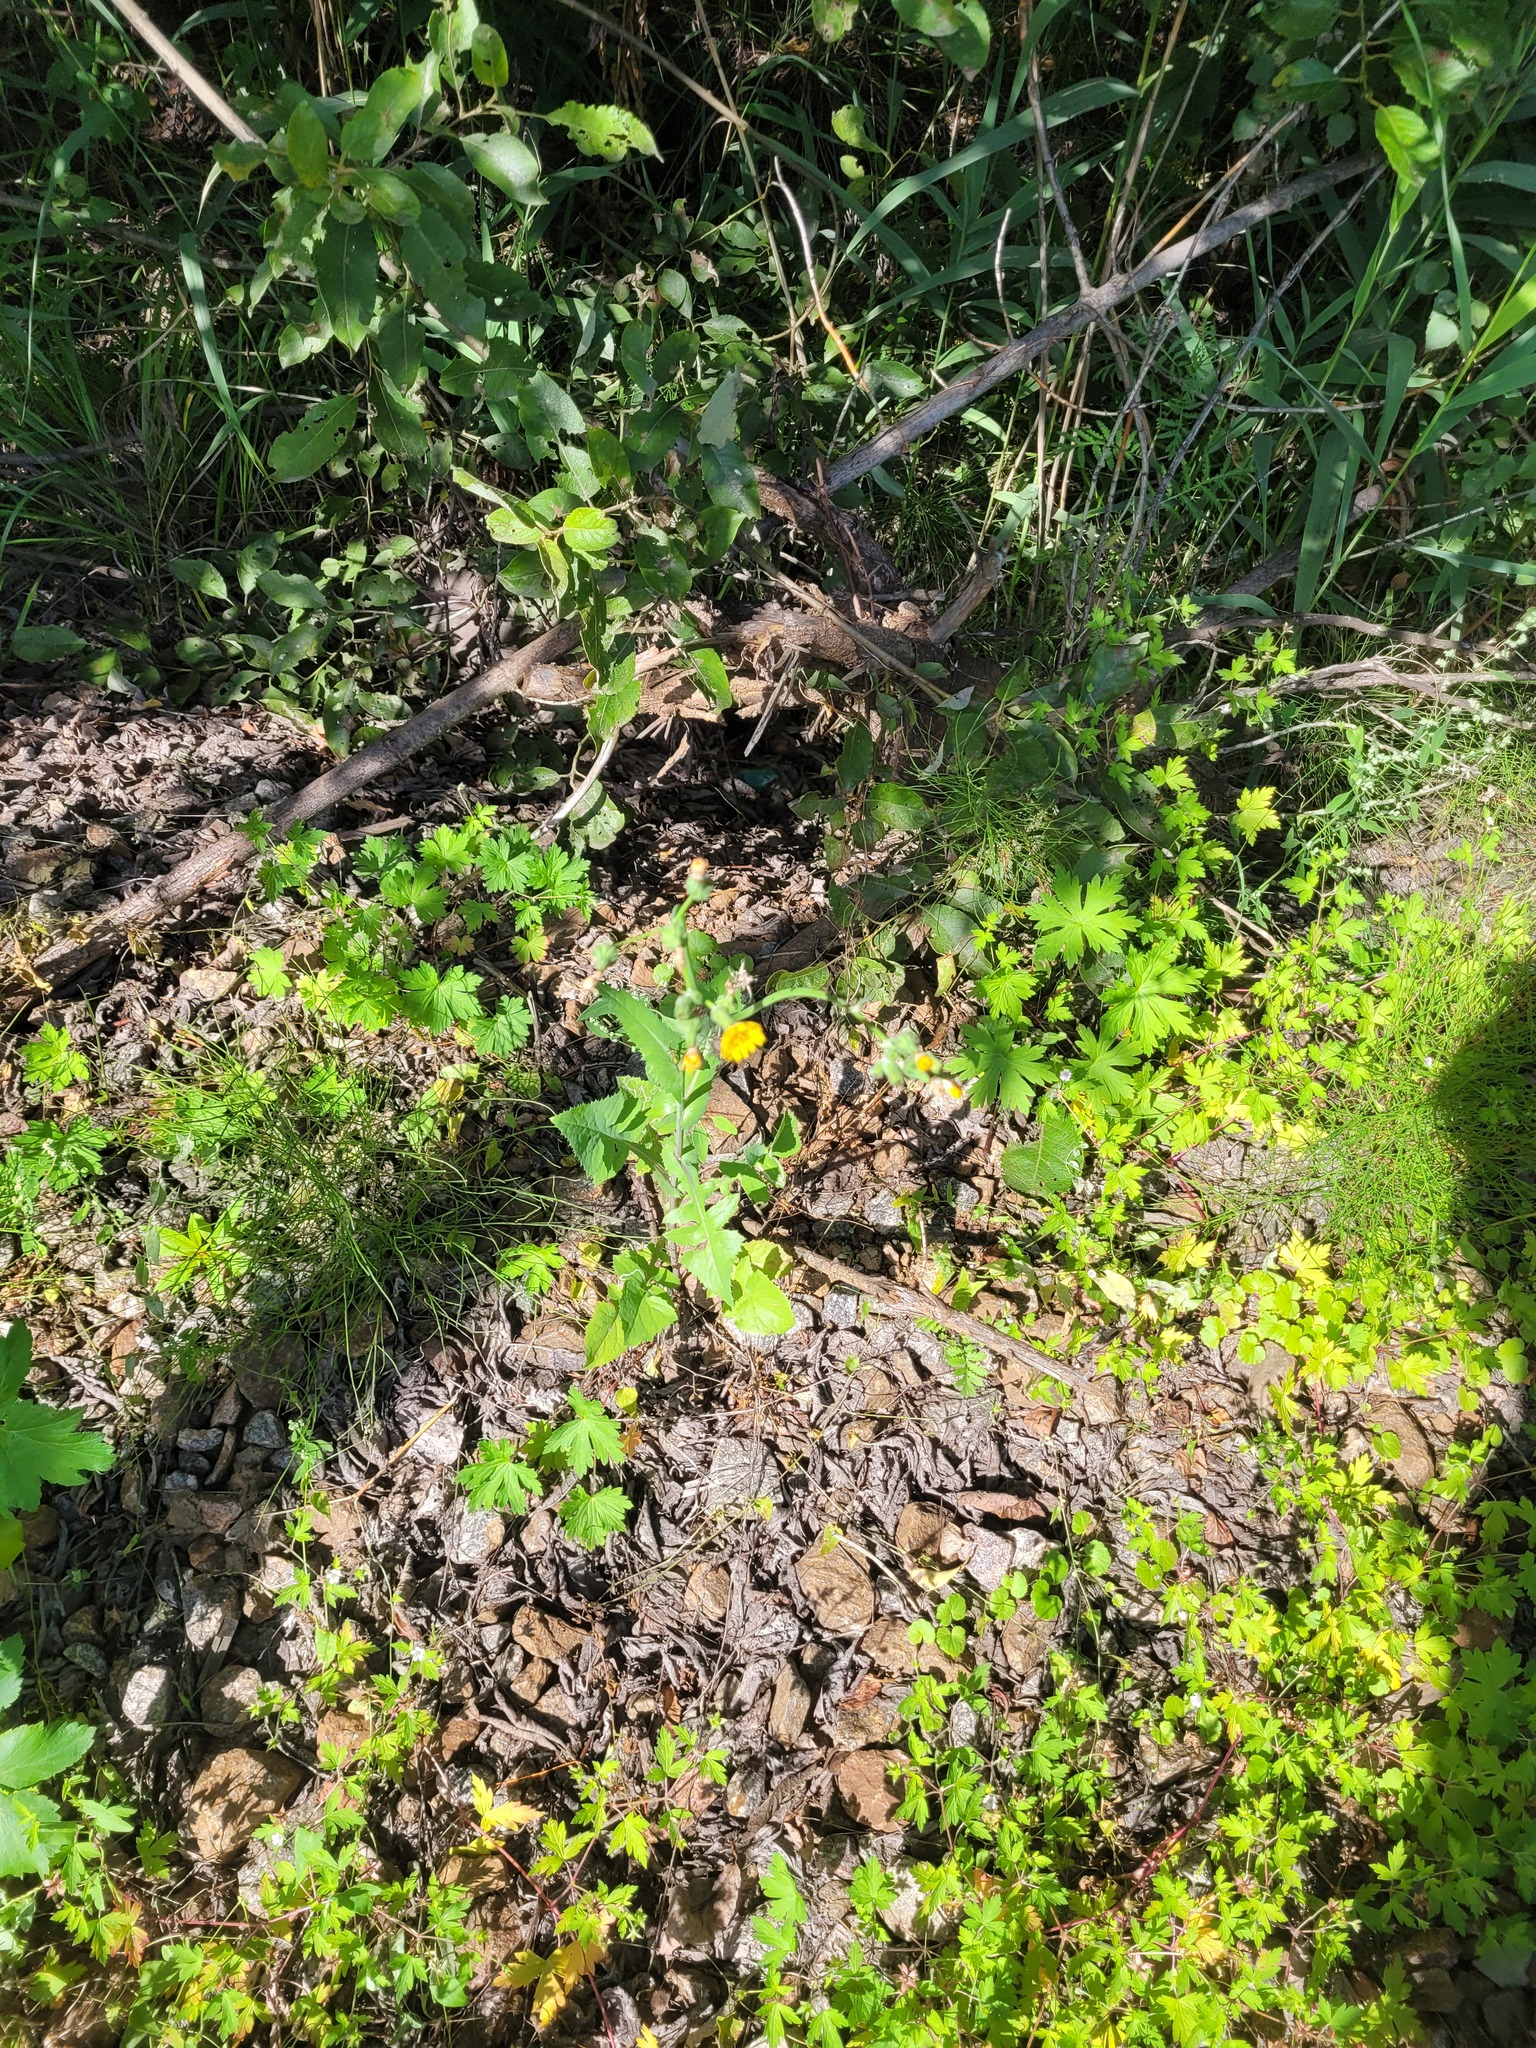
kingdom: Plantae
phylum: Tracheophyta
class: Magnoliopsida
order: Asterales
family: Asteraceae
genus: Sonchus
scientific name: Sonchus oleraceus
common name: Common sowthistle
